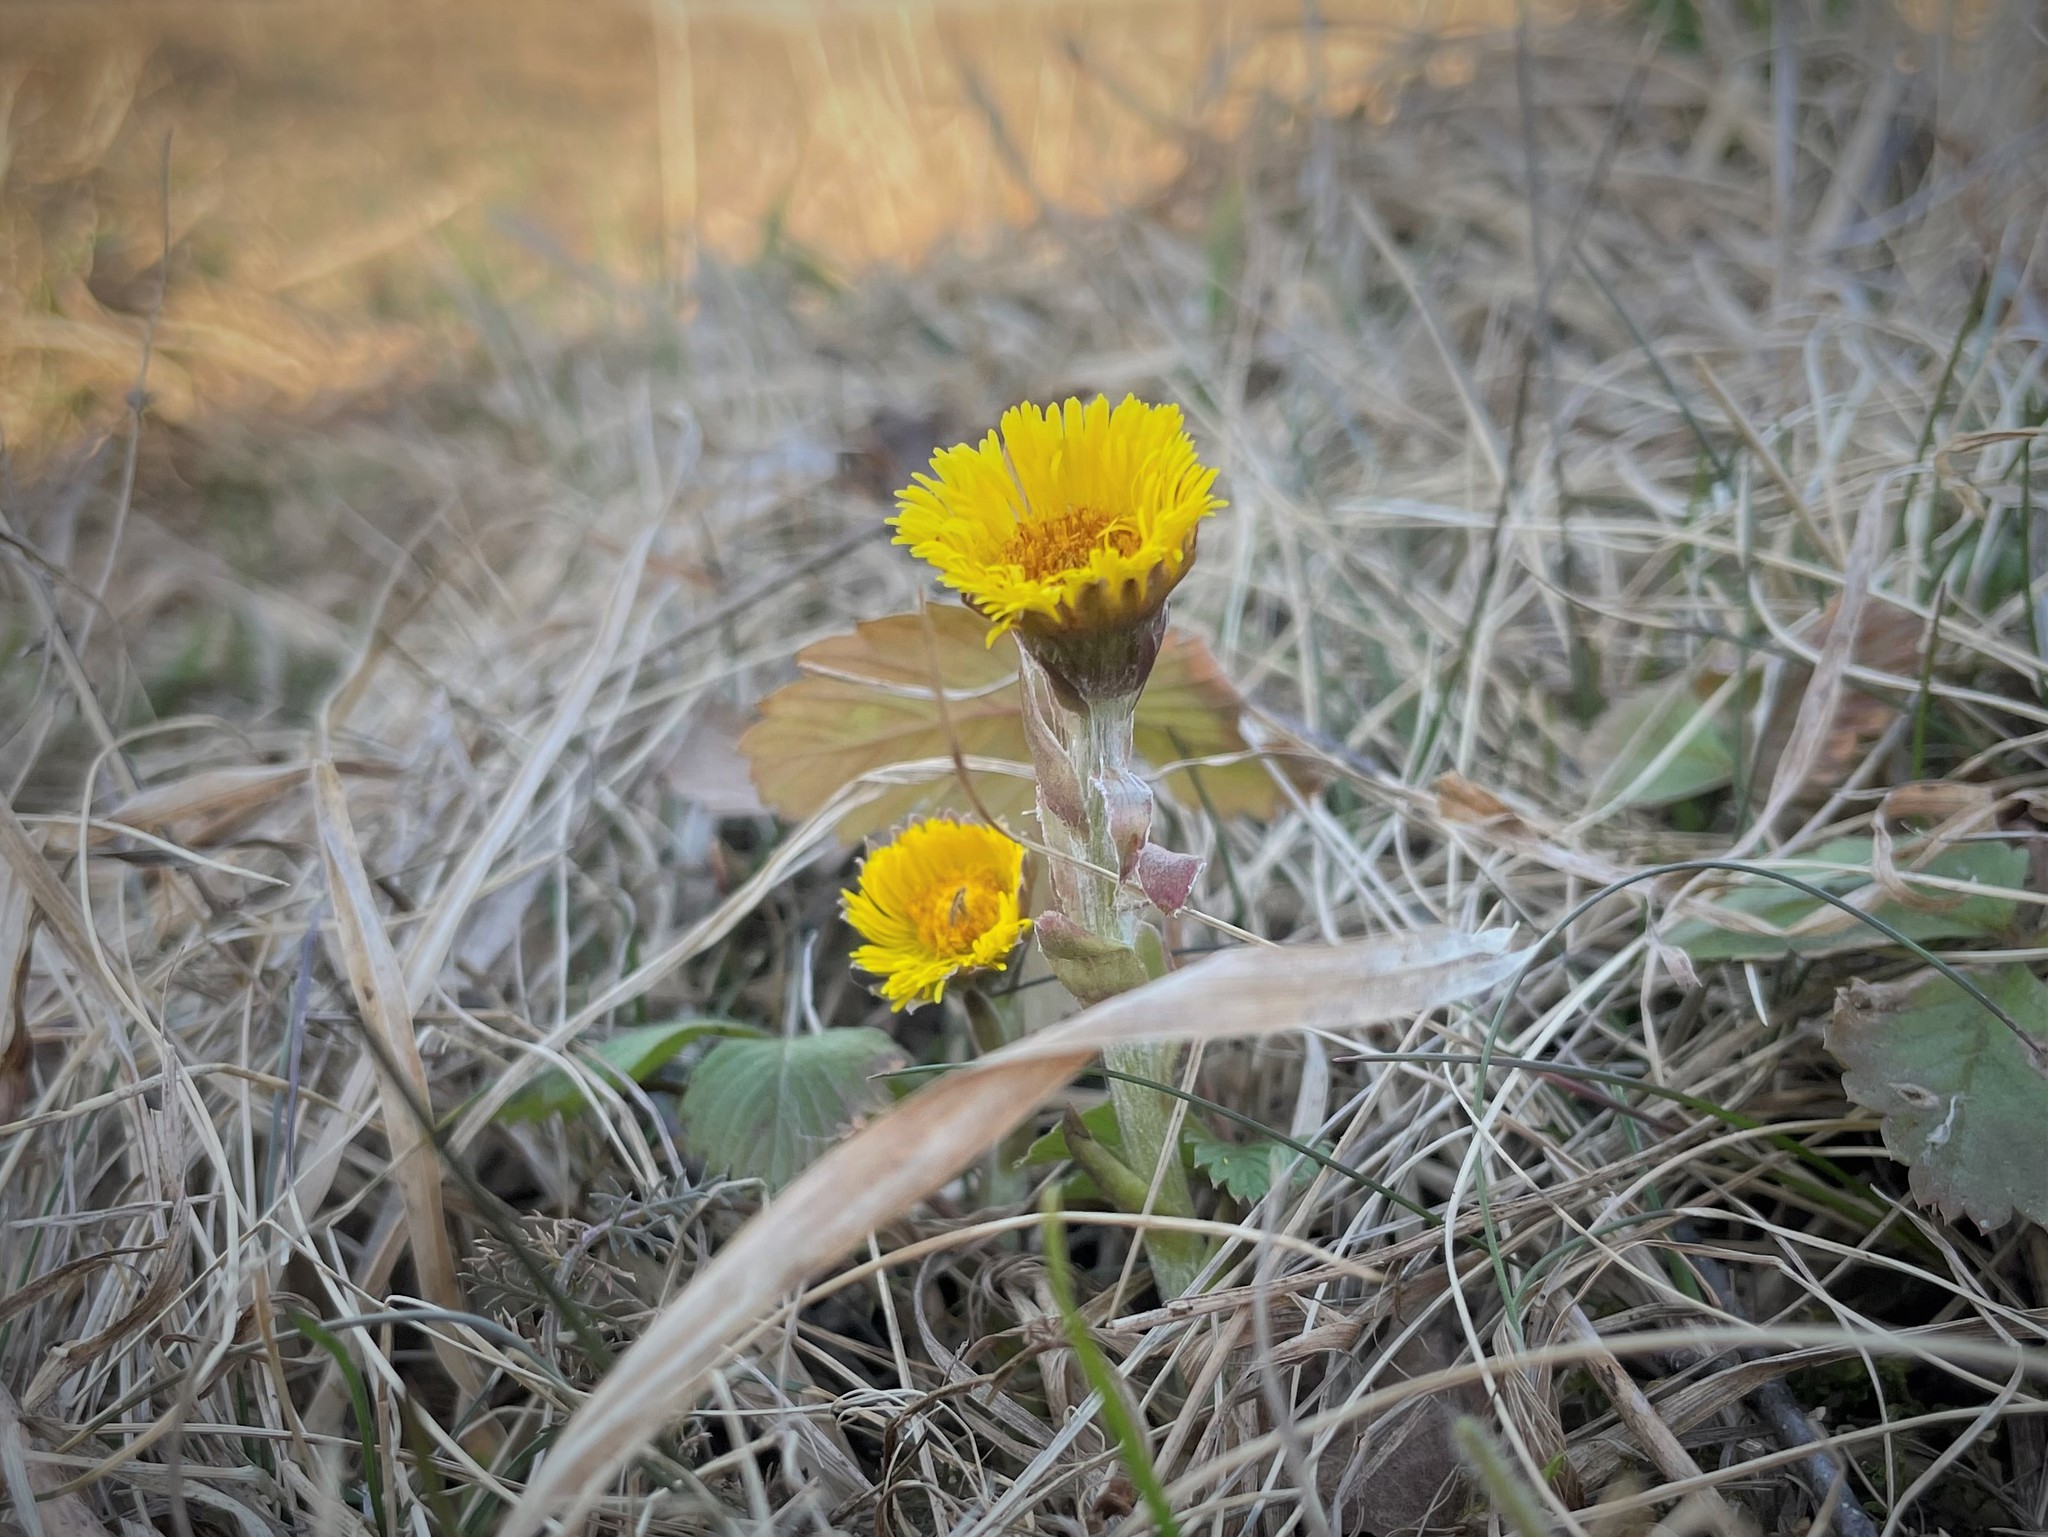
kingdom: Plantae
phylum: Tracheophyta
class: Magnoliopsida
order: Asterales
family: Asteraceae
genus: Tussilago
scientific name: Tussilago farfara
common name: Coltsfoot
